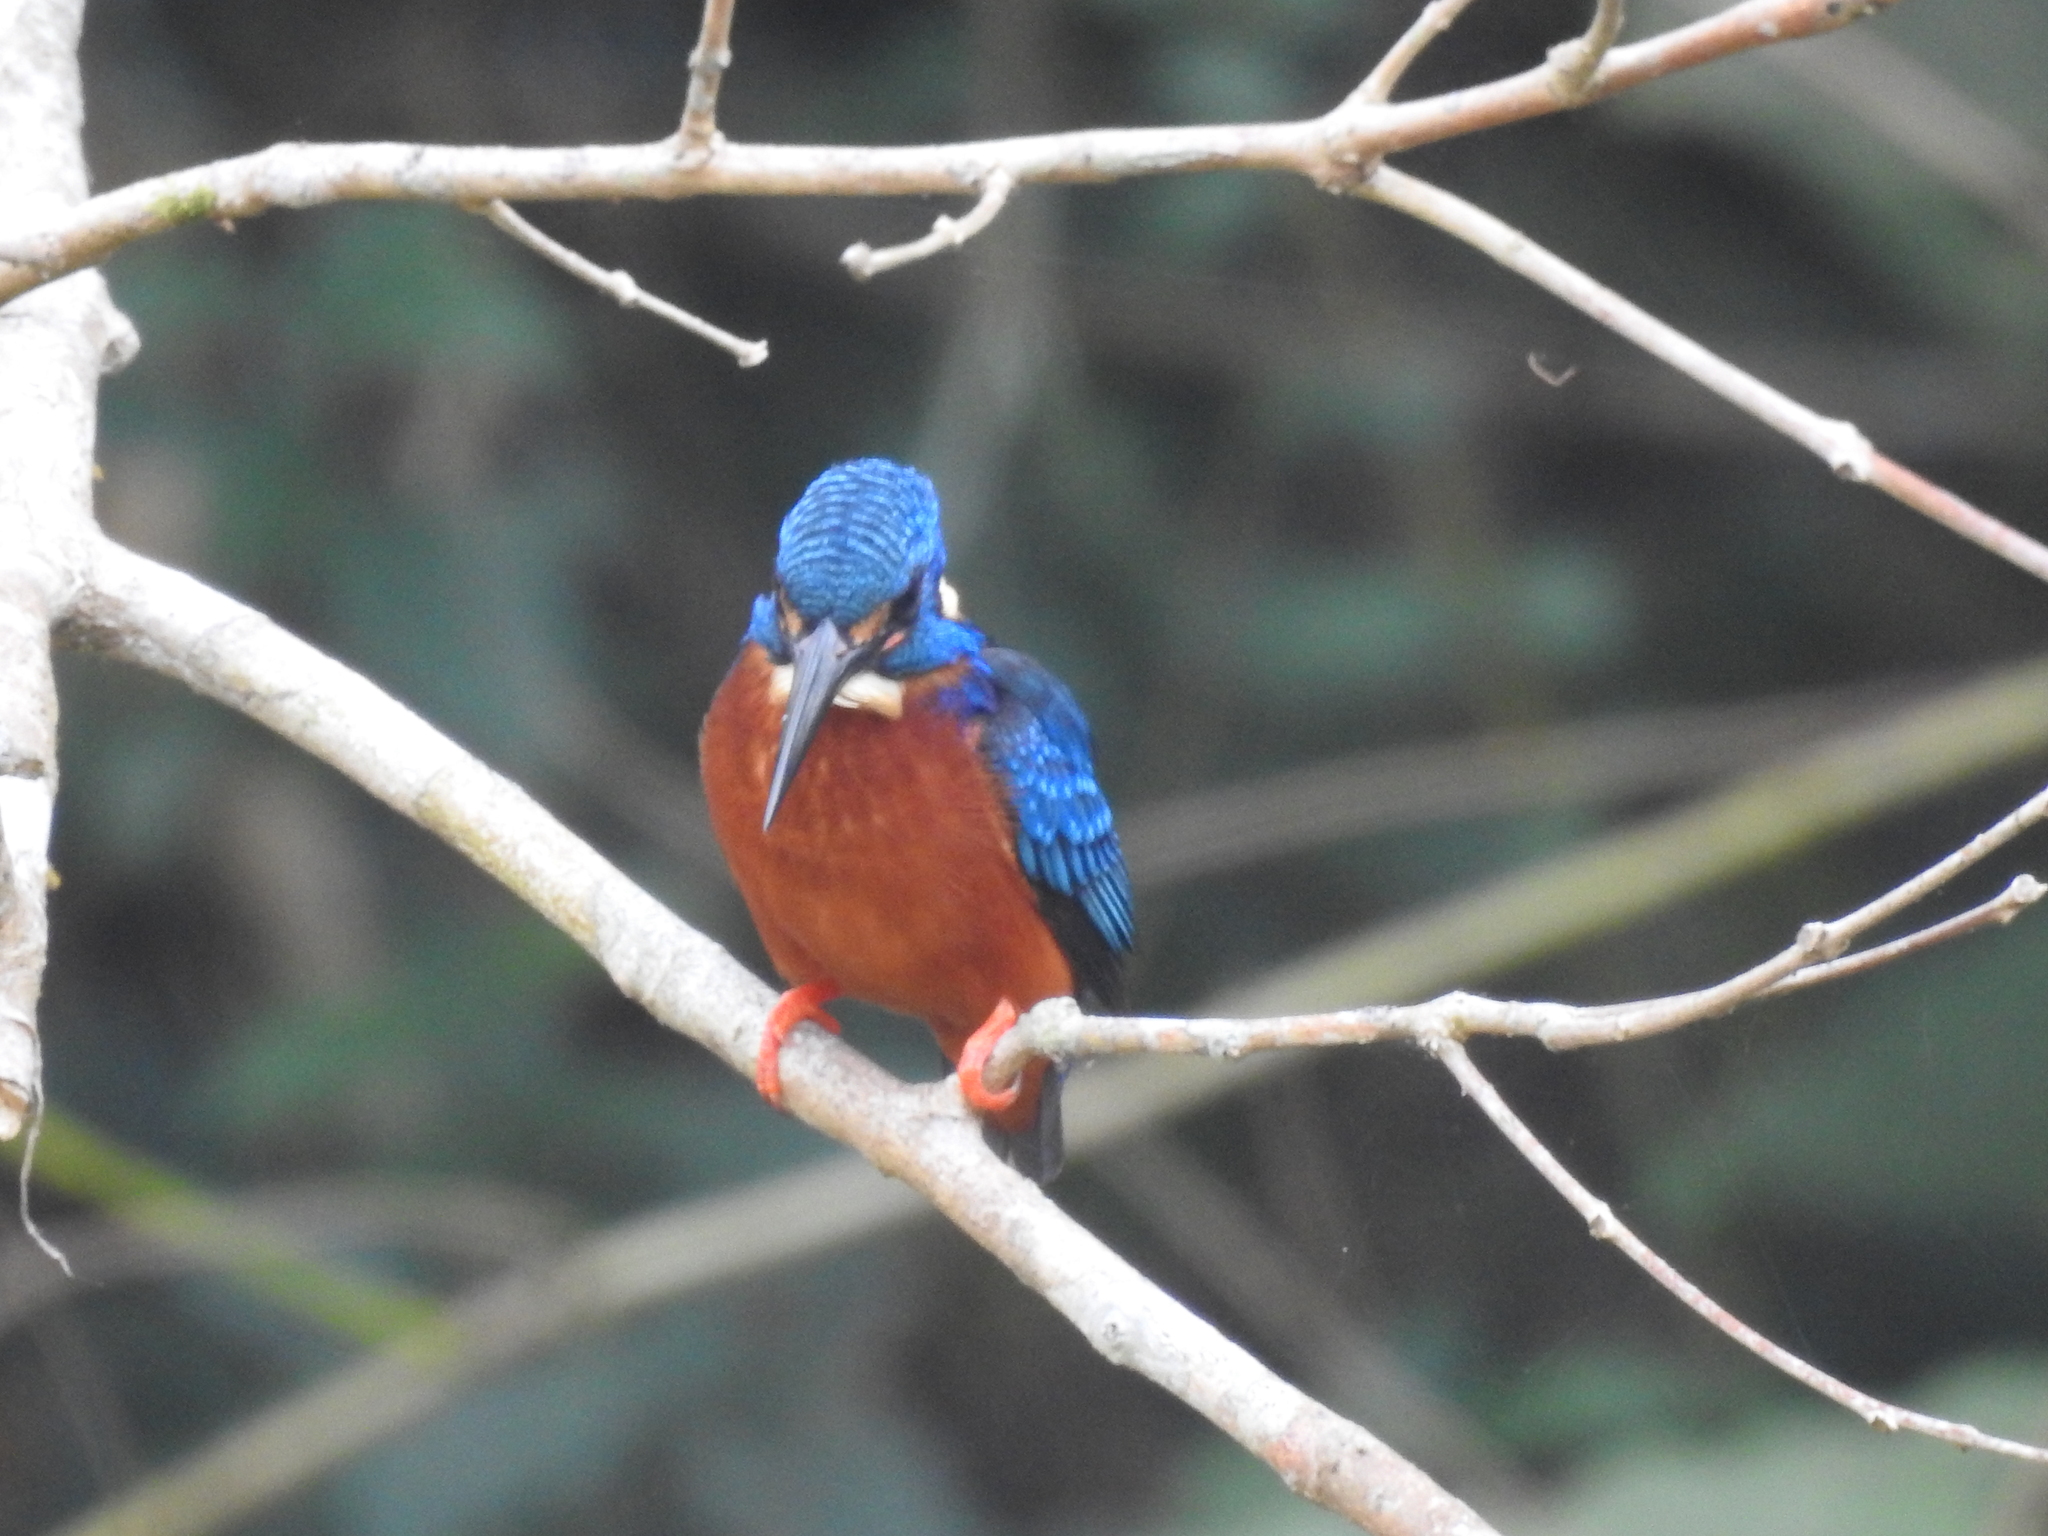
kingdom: Animalia
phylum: Chordata
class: Aves
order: Coraciiformes
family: Alcedinidae
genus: Alcedo
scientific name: Alcedo meninting
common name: Blue-eared kingfisher
